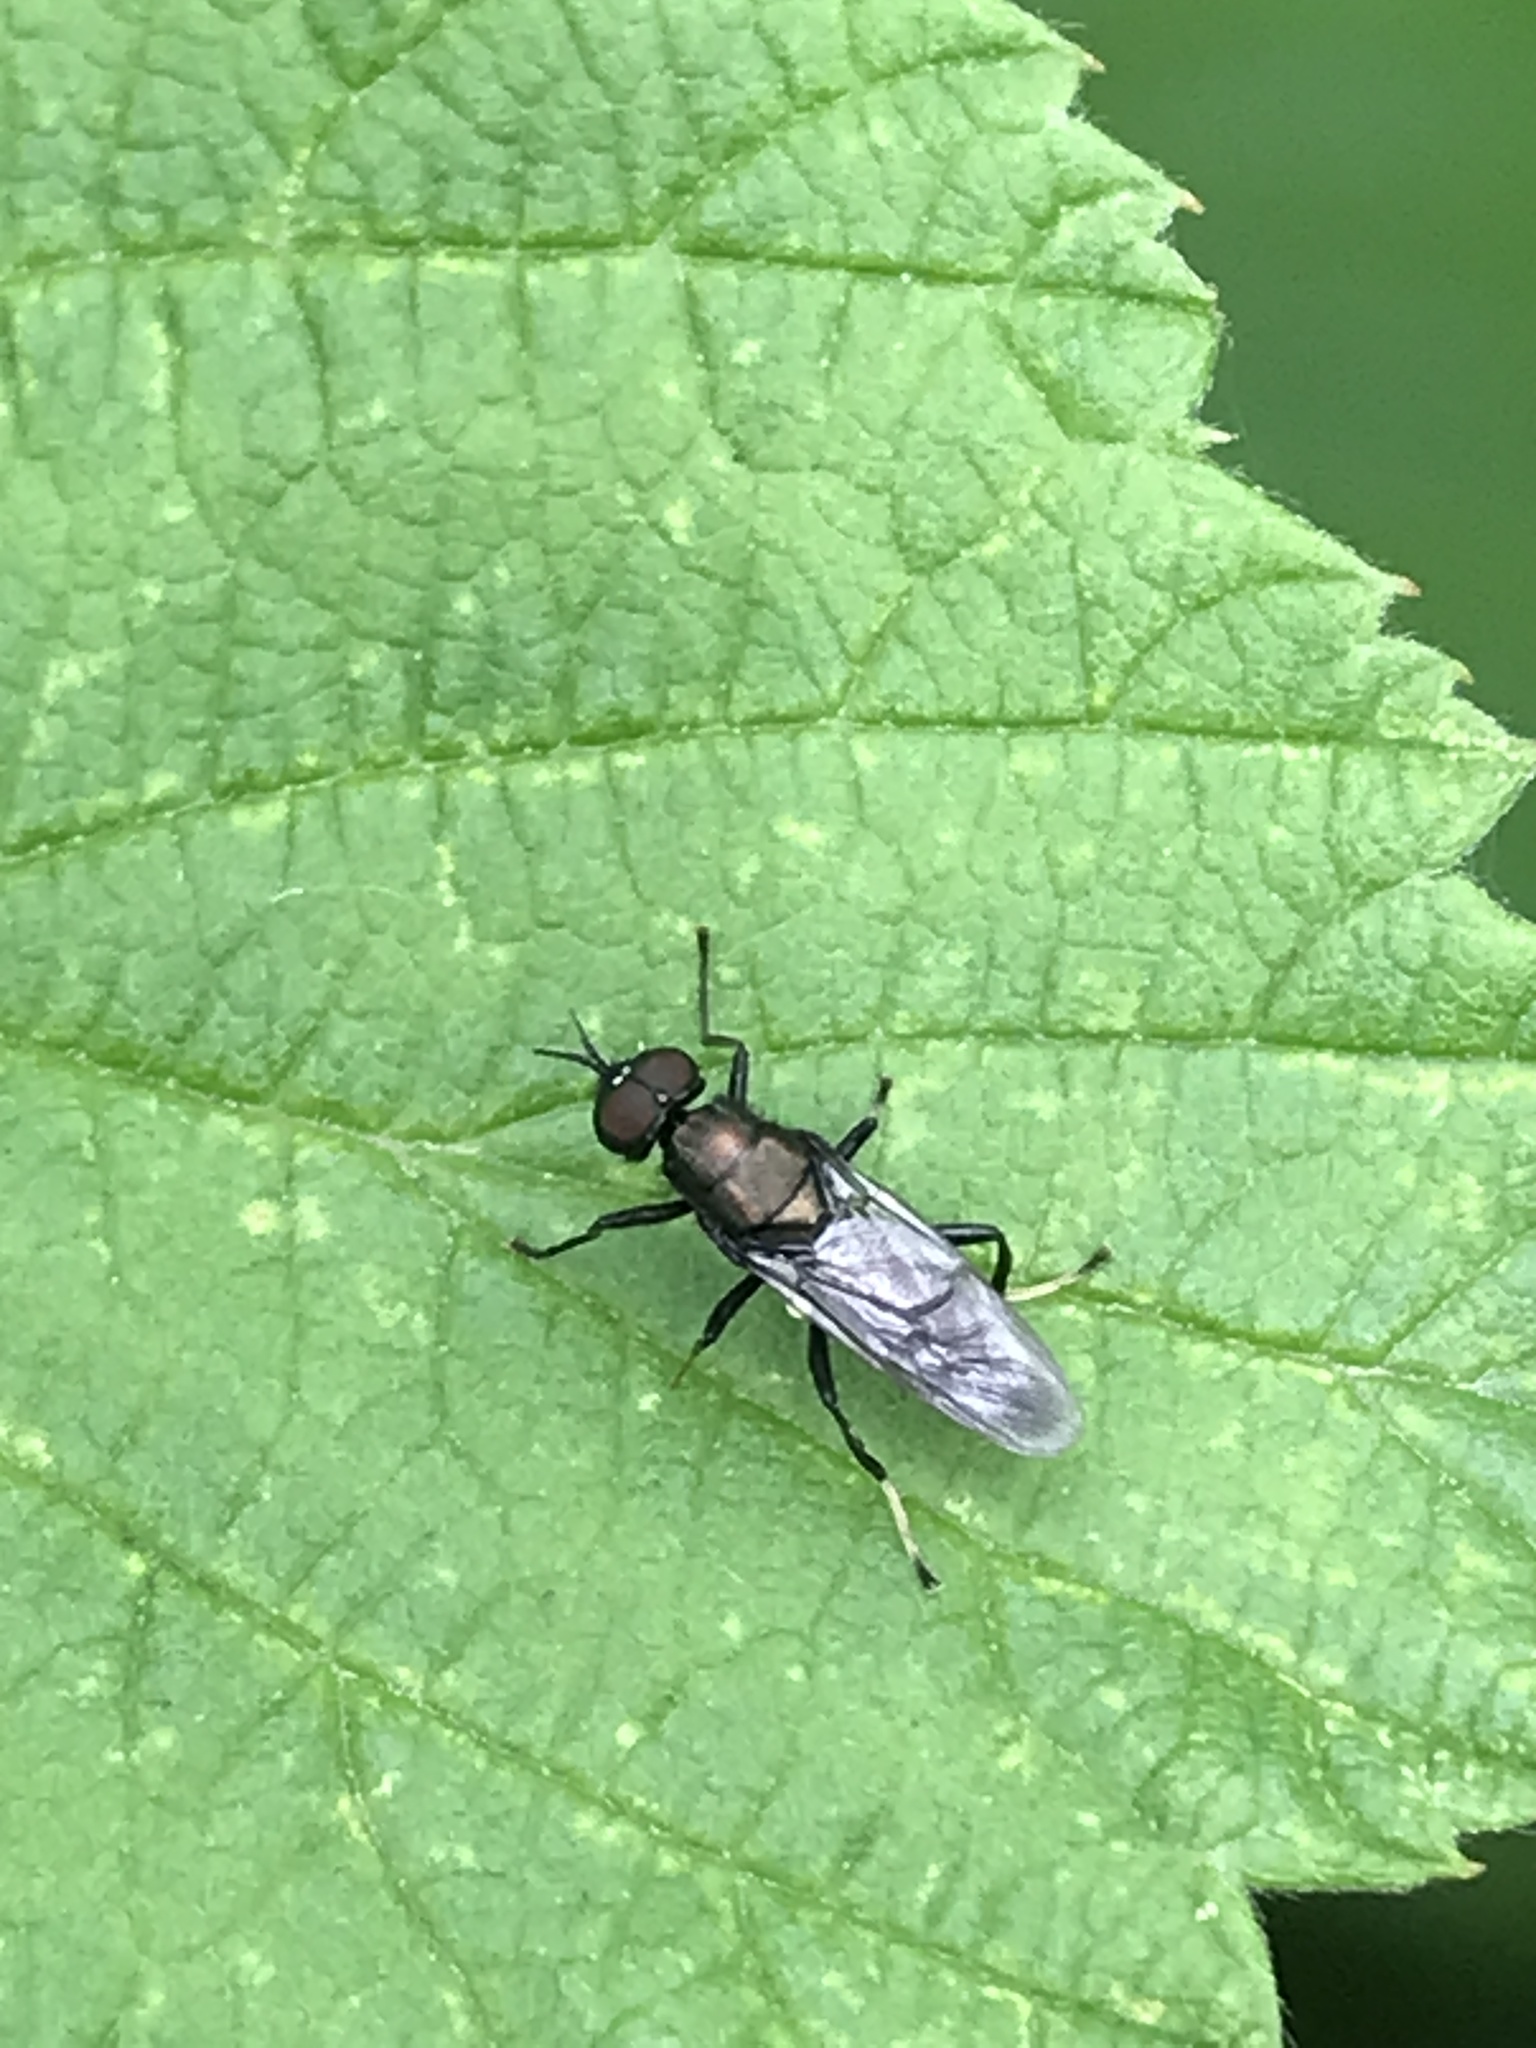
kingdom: Animalia
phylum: Arthropoda
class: Insecta
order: Diptera
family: Stratiomyidae
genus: Myxosargus
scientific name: Myxosargus nigricormis
